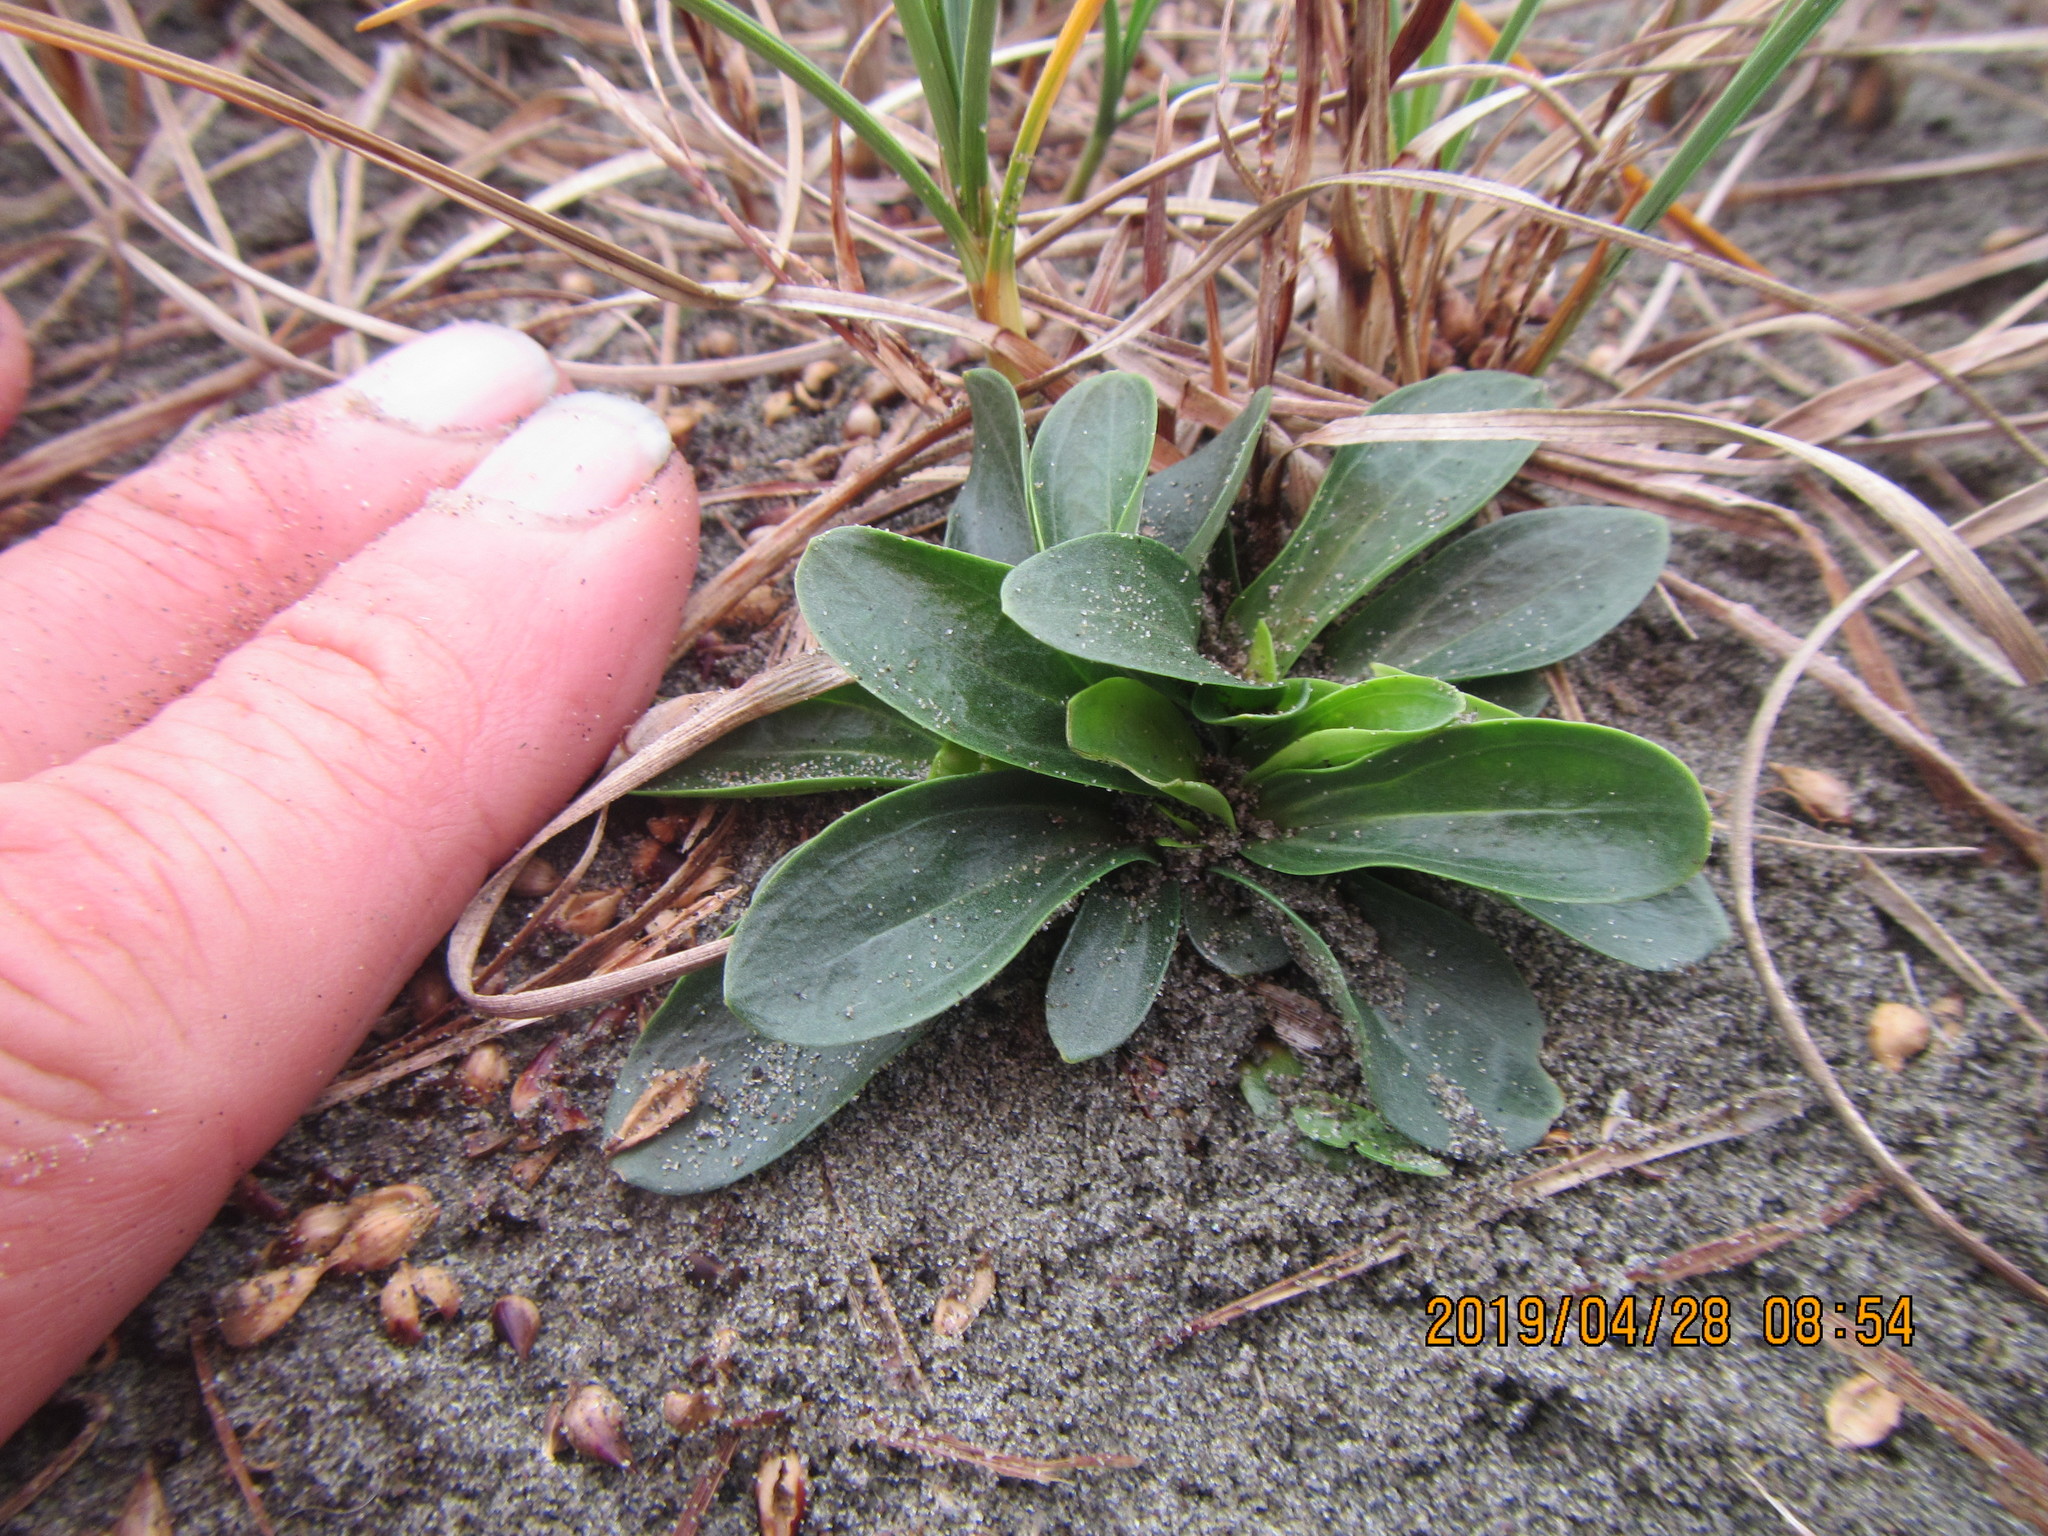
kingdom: Plantae
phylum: Tracheophyta
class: Magnoliopsida
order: Gentianales
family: Gentianaceae
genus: Centaurium
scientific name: Centaurium erythraea
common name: Common centaury
